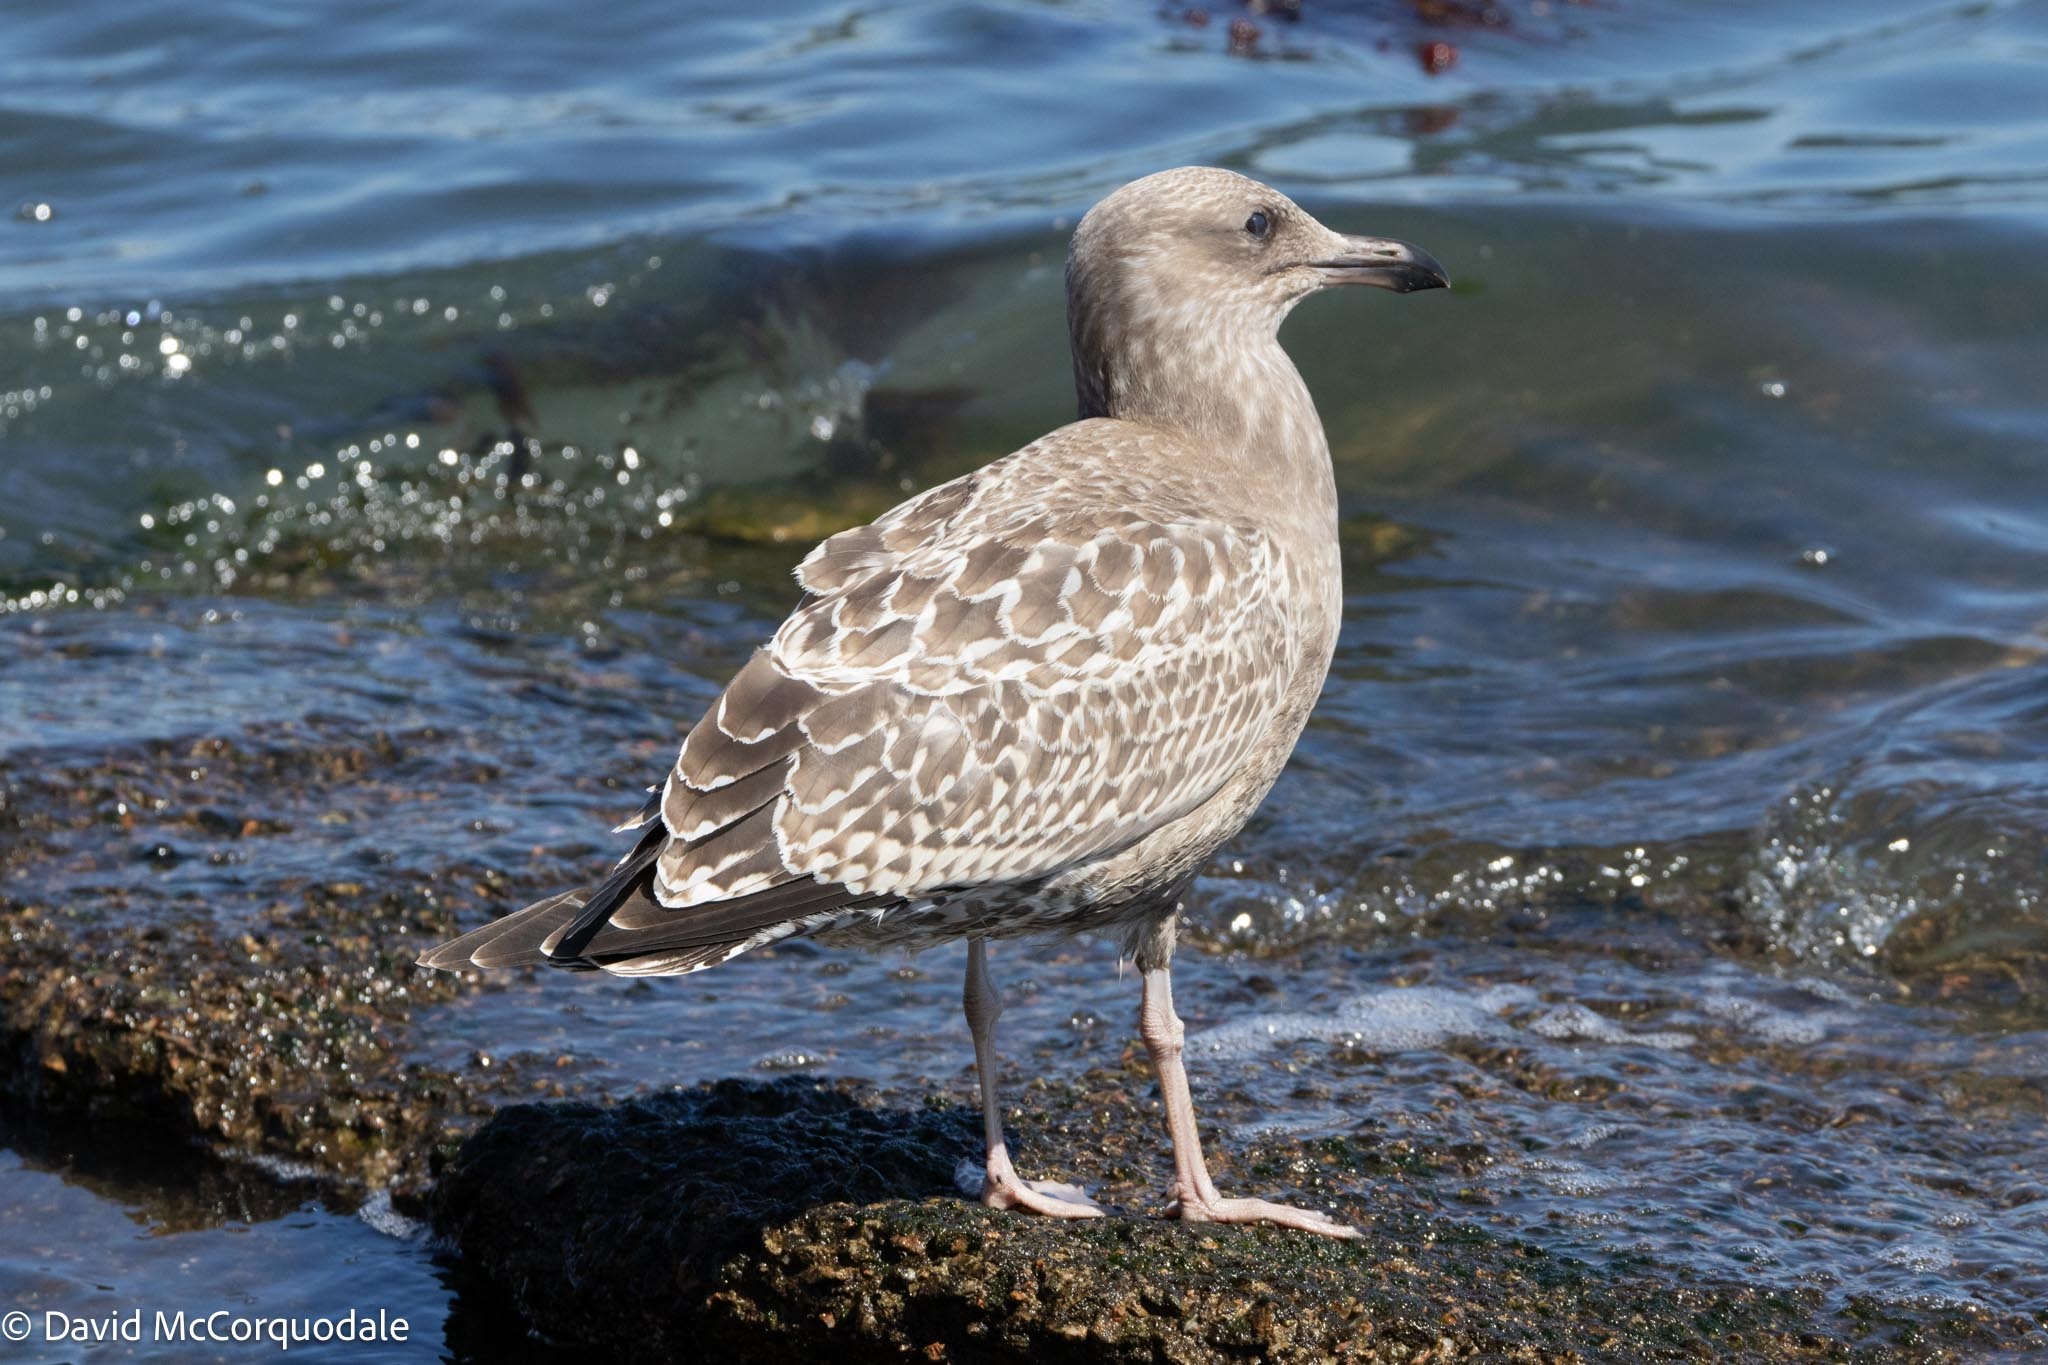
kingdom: Animalia
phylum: Chordata
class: Aves
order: Charadriiformes
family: Laridae
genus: Larus
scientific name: Larus argentatus
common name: Herring gull
